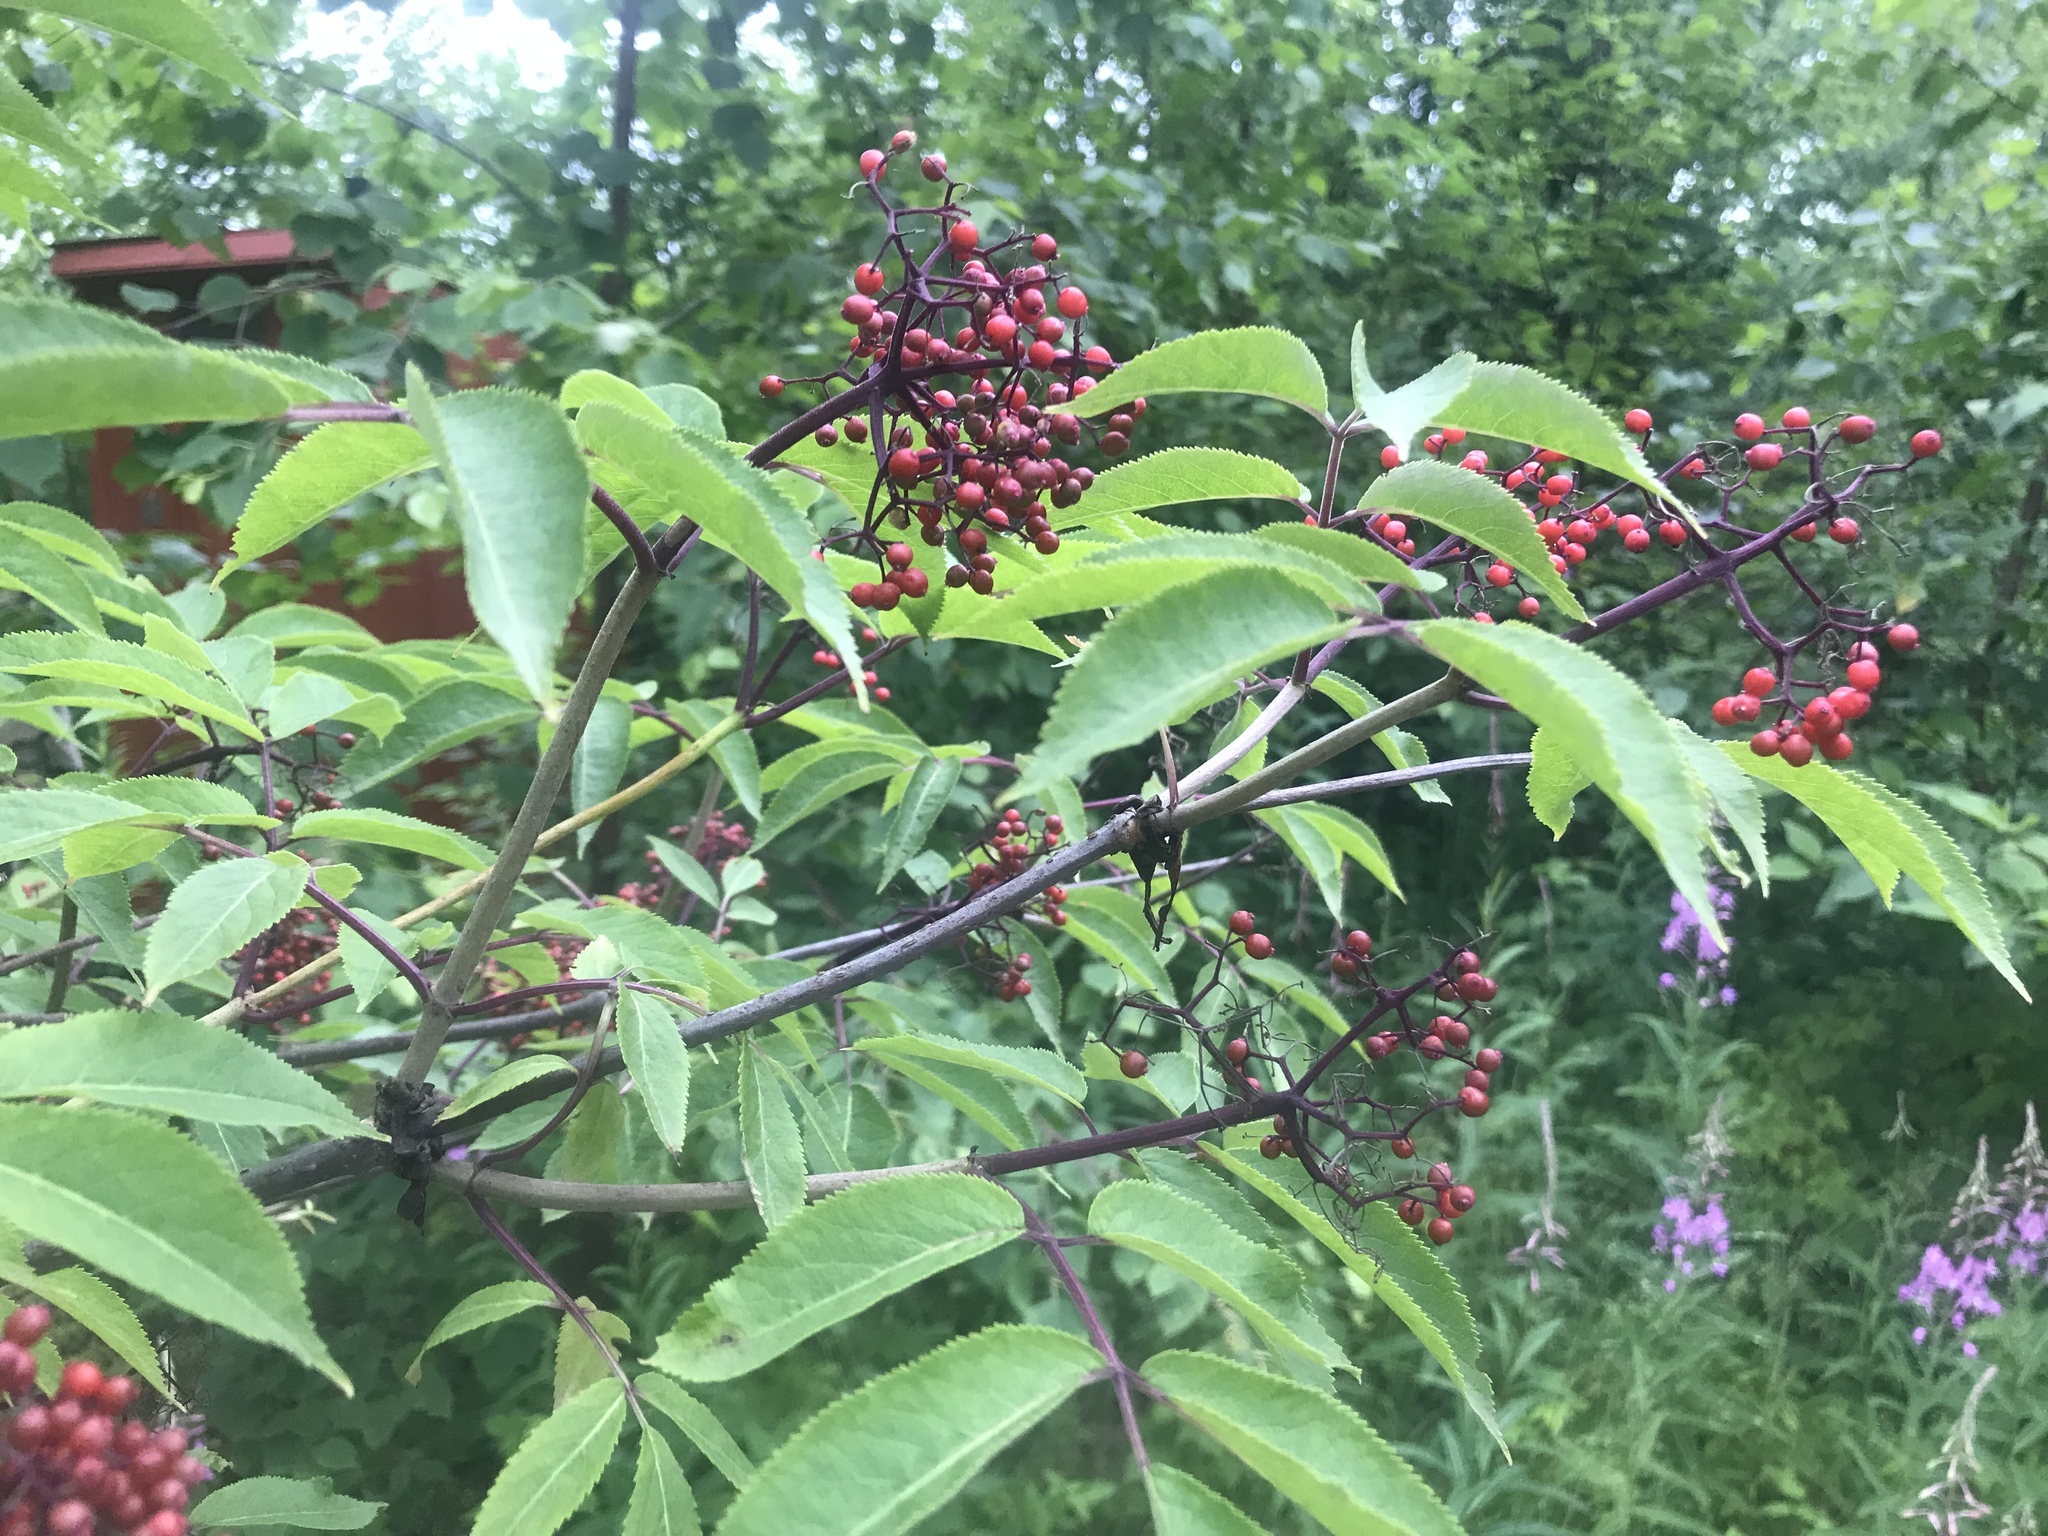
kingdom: Plantae
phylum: Tracheophyta
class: Magnoliopsida
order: Dipsacales
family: Viburnaceae
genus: Sambucus
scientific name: Sambucus racemosa
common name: Red-berried elder
